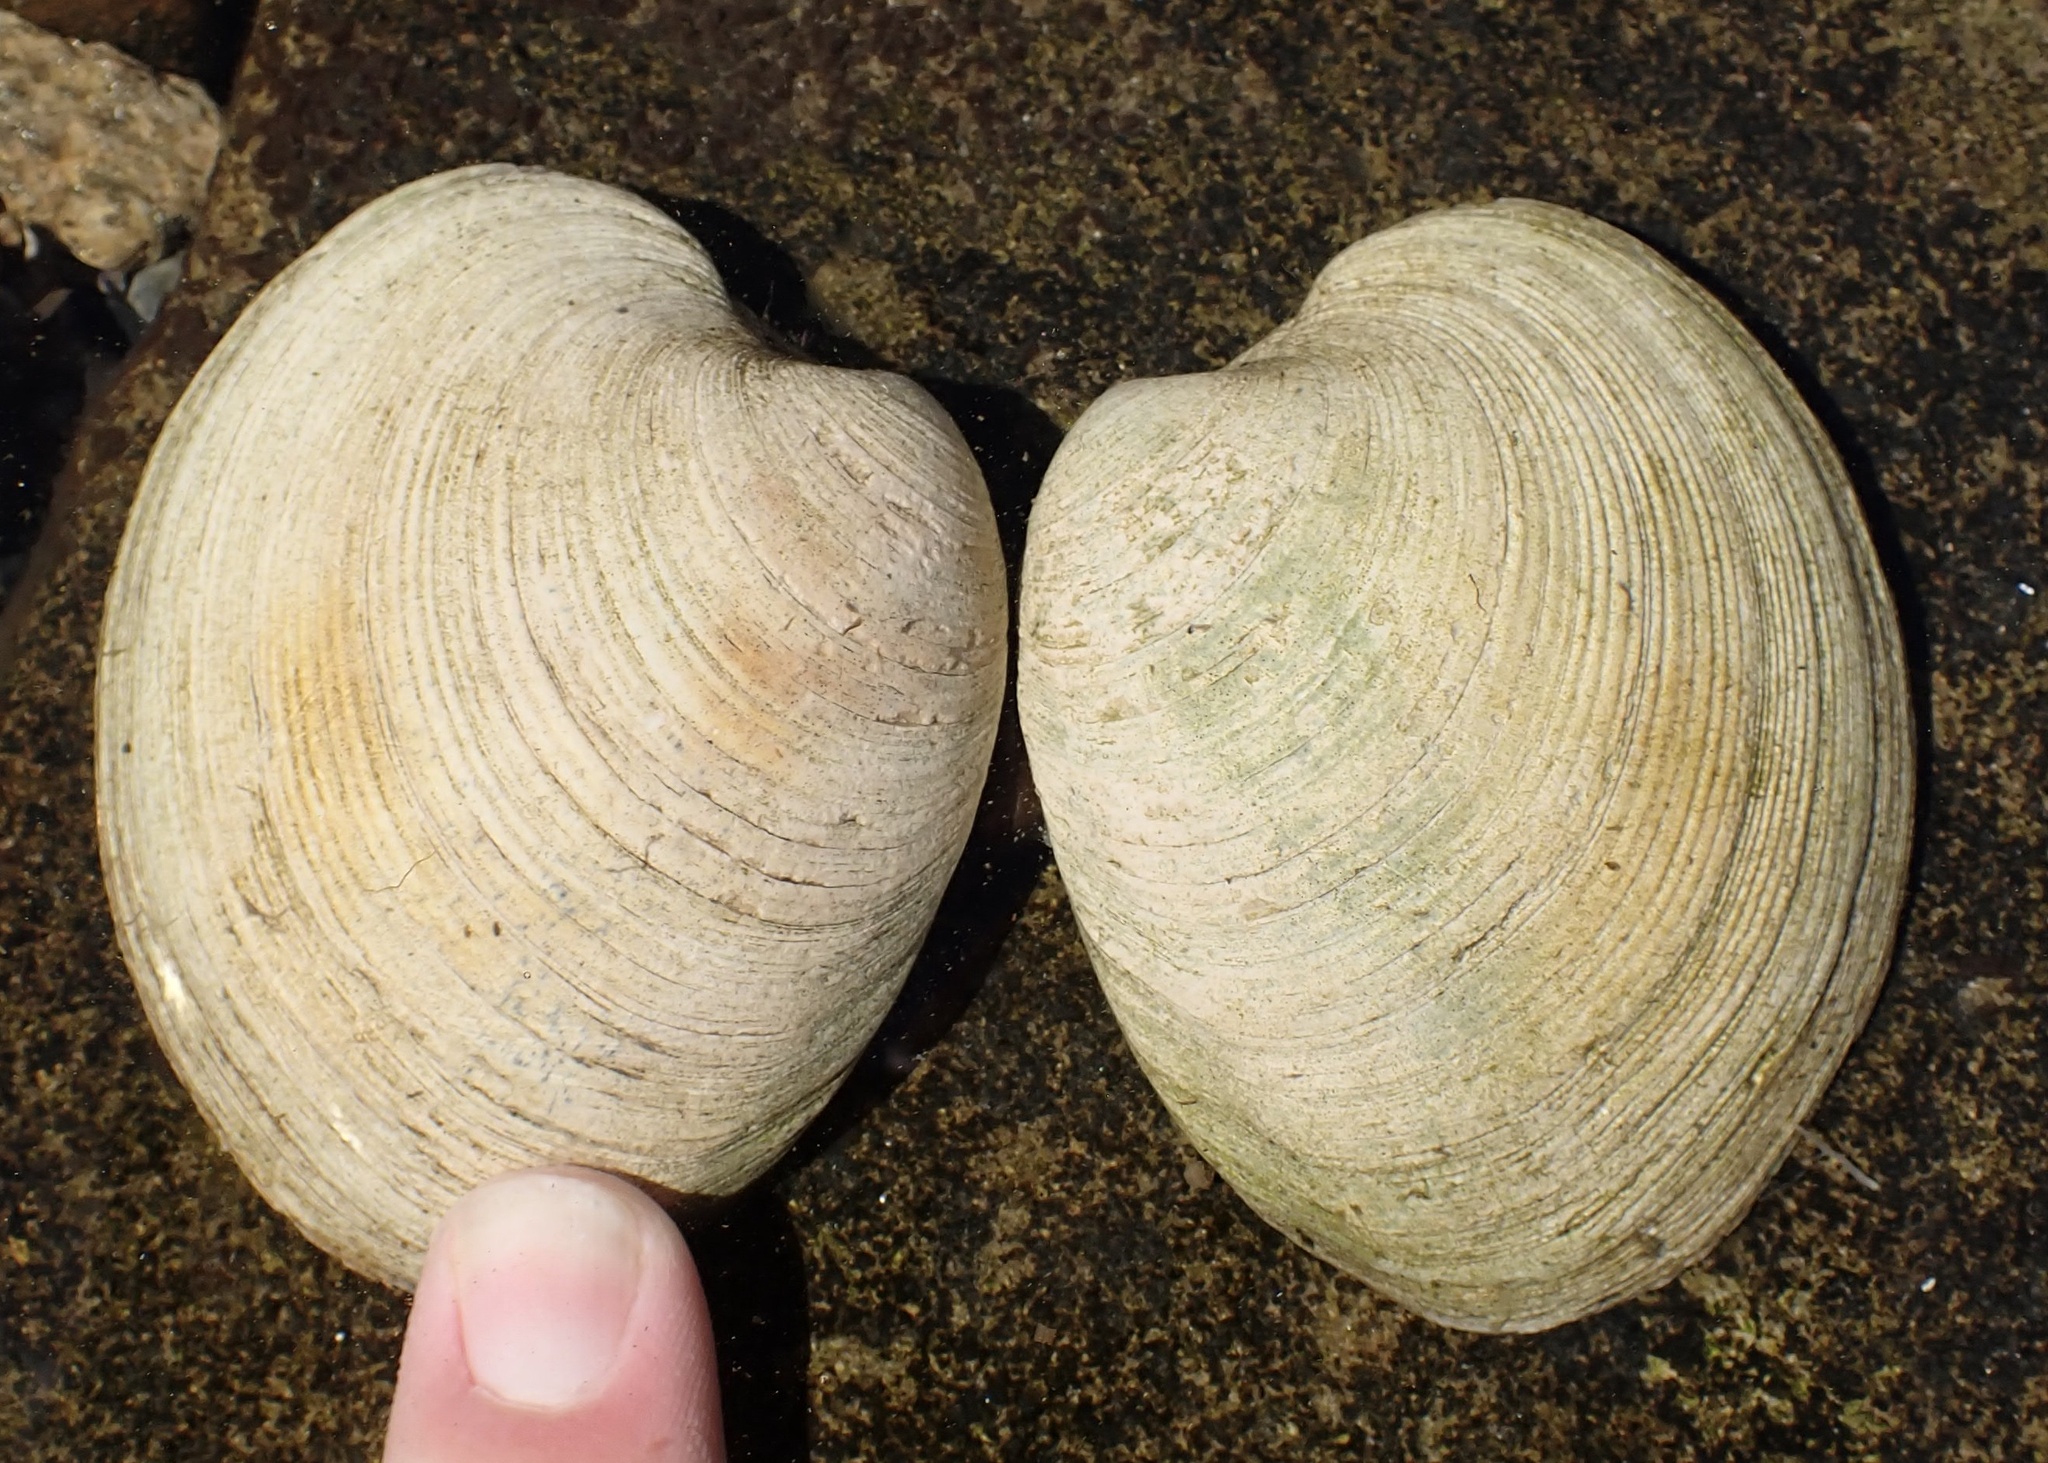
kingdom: Animalia
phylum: Mollusca
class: Bivalvia
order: Venerida
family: Veneridae
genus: Mercenaria
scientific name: Mercenaria mercenaria
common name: American hard-shelled clam
